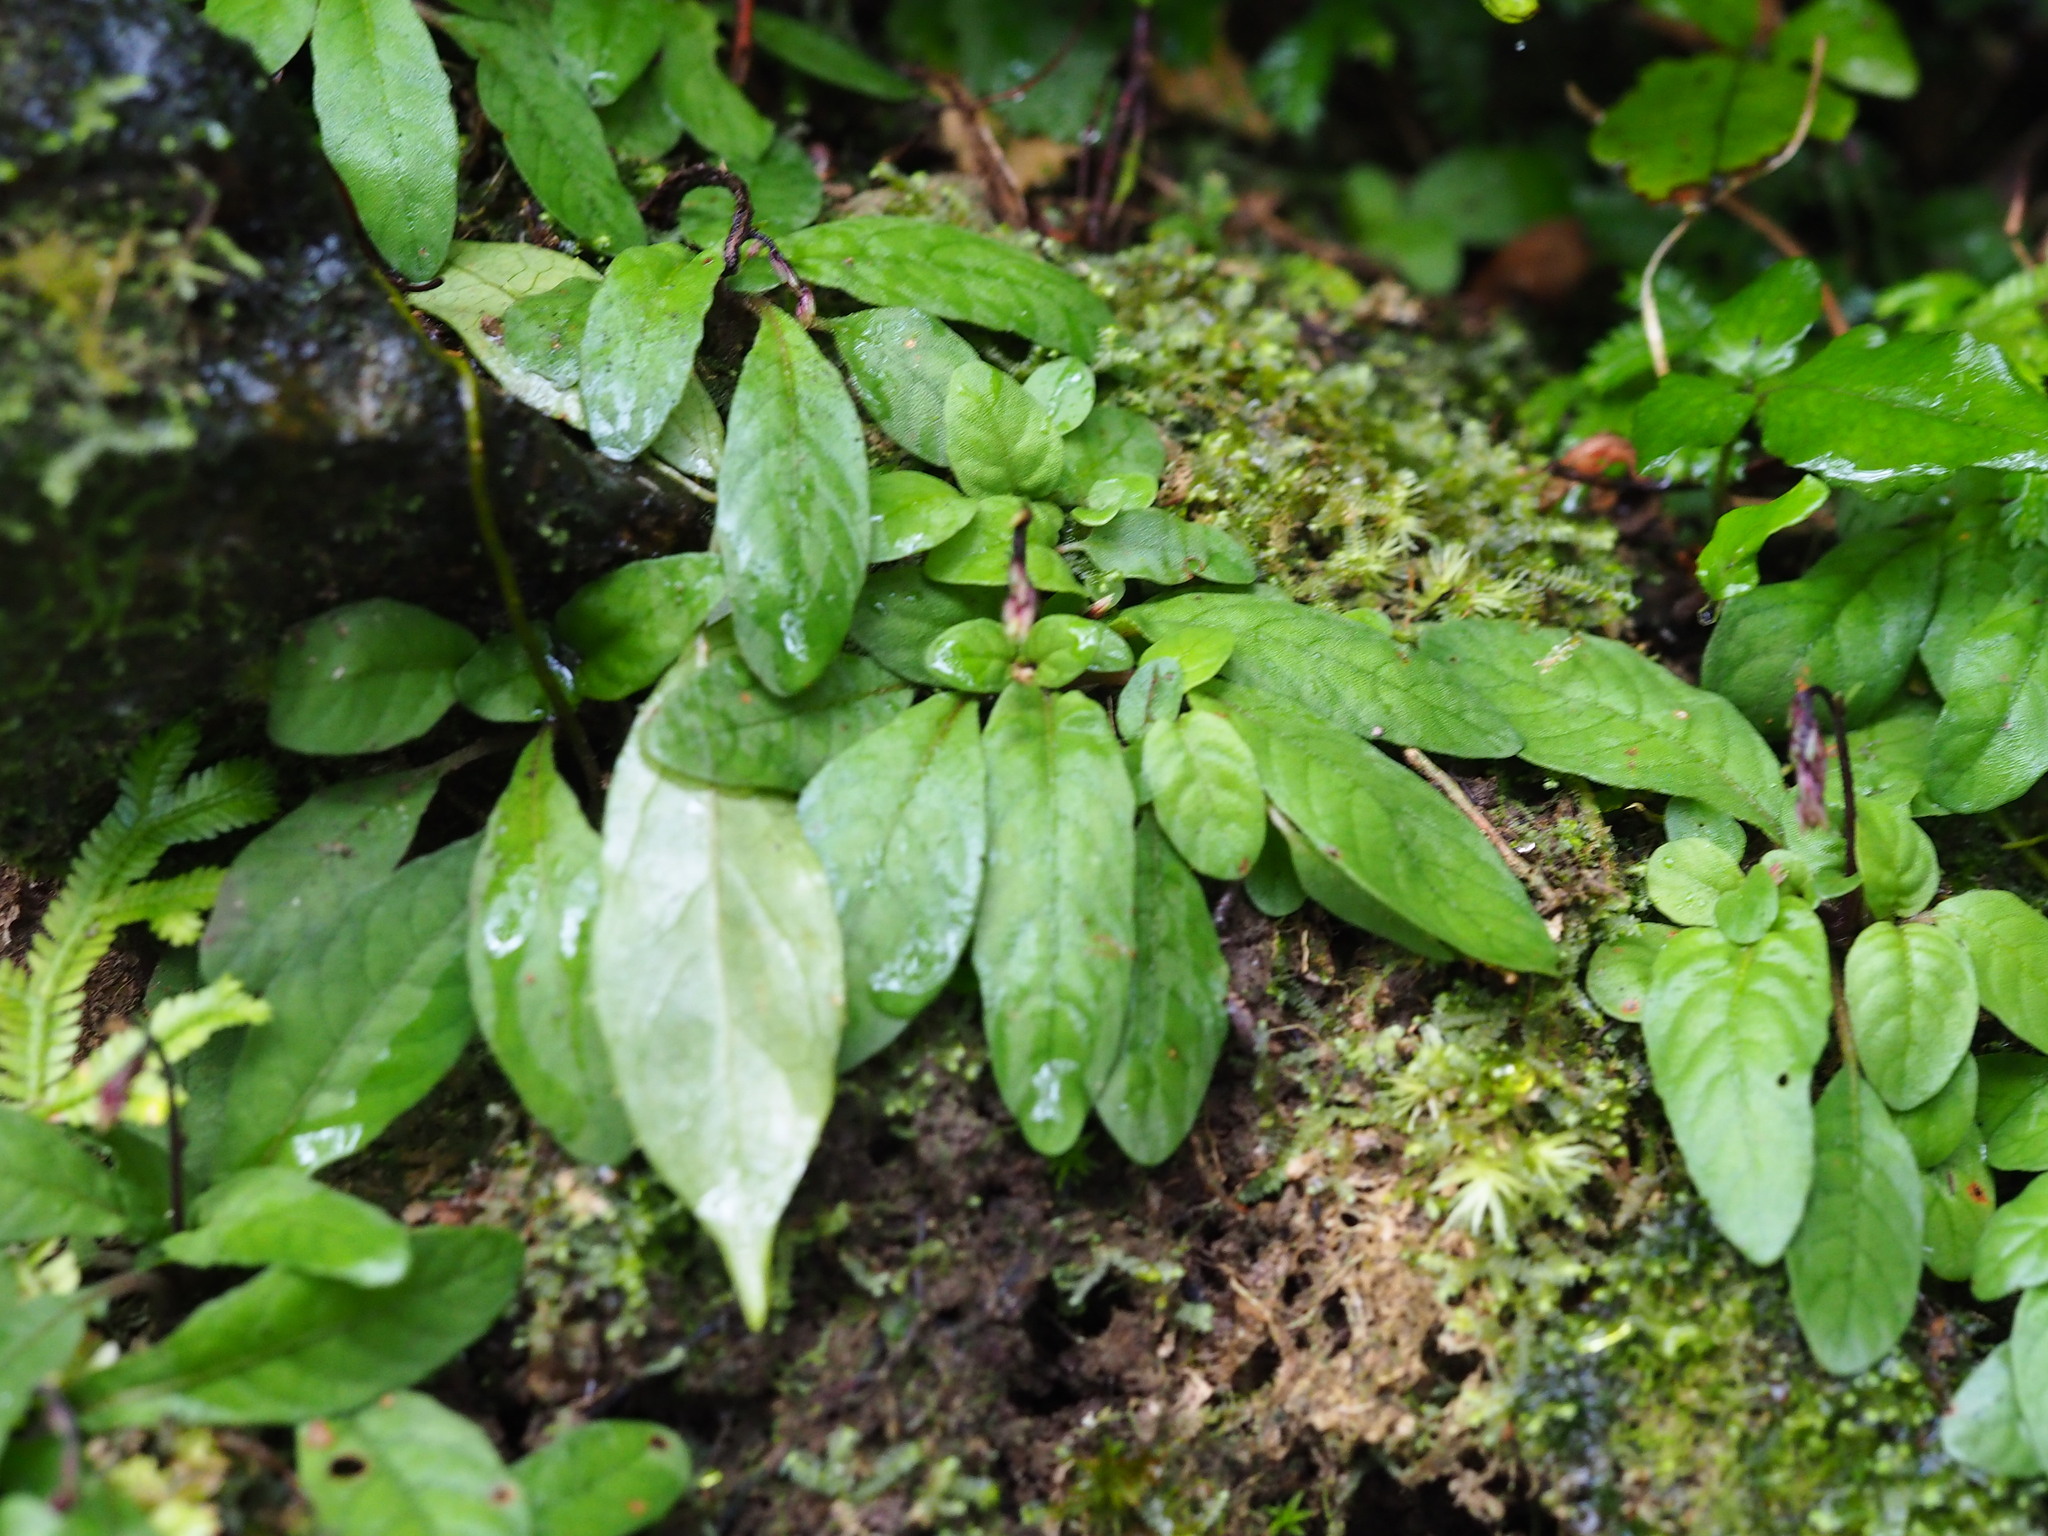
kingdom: Plantae
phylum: Tracheophyta
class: Magnoliopsida
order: Lamiales
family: Acanthaceae
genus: Staurogyne
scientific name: Staurogyne concinnula
